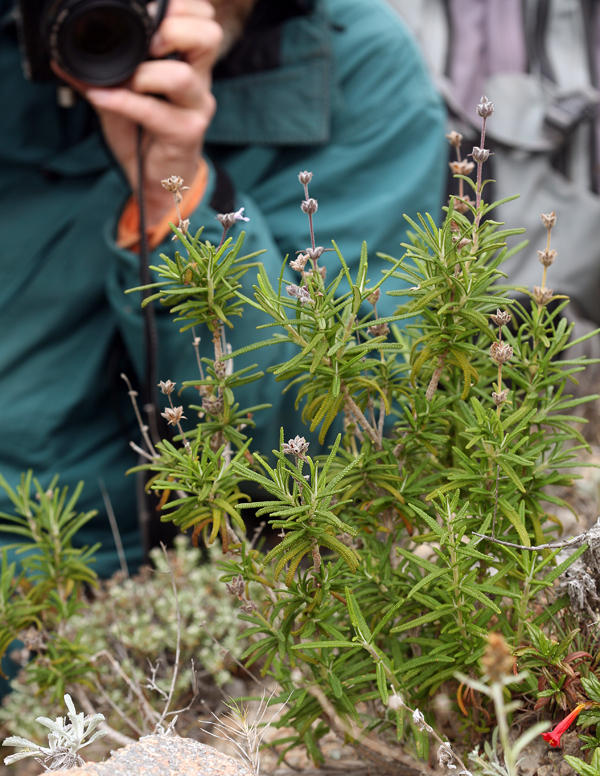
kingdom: Plantae
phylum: Tracheophyta
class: Magnoliopsida
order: Lamiales
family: Lamiaceae
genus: Salvia
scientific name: Salvia brandegeei
